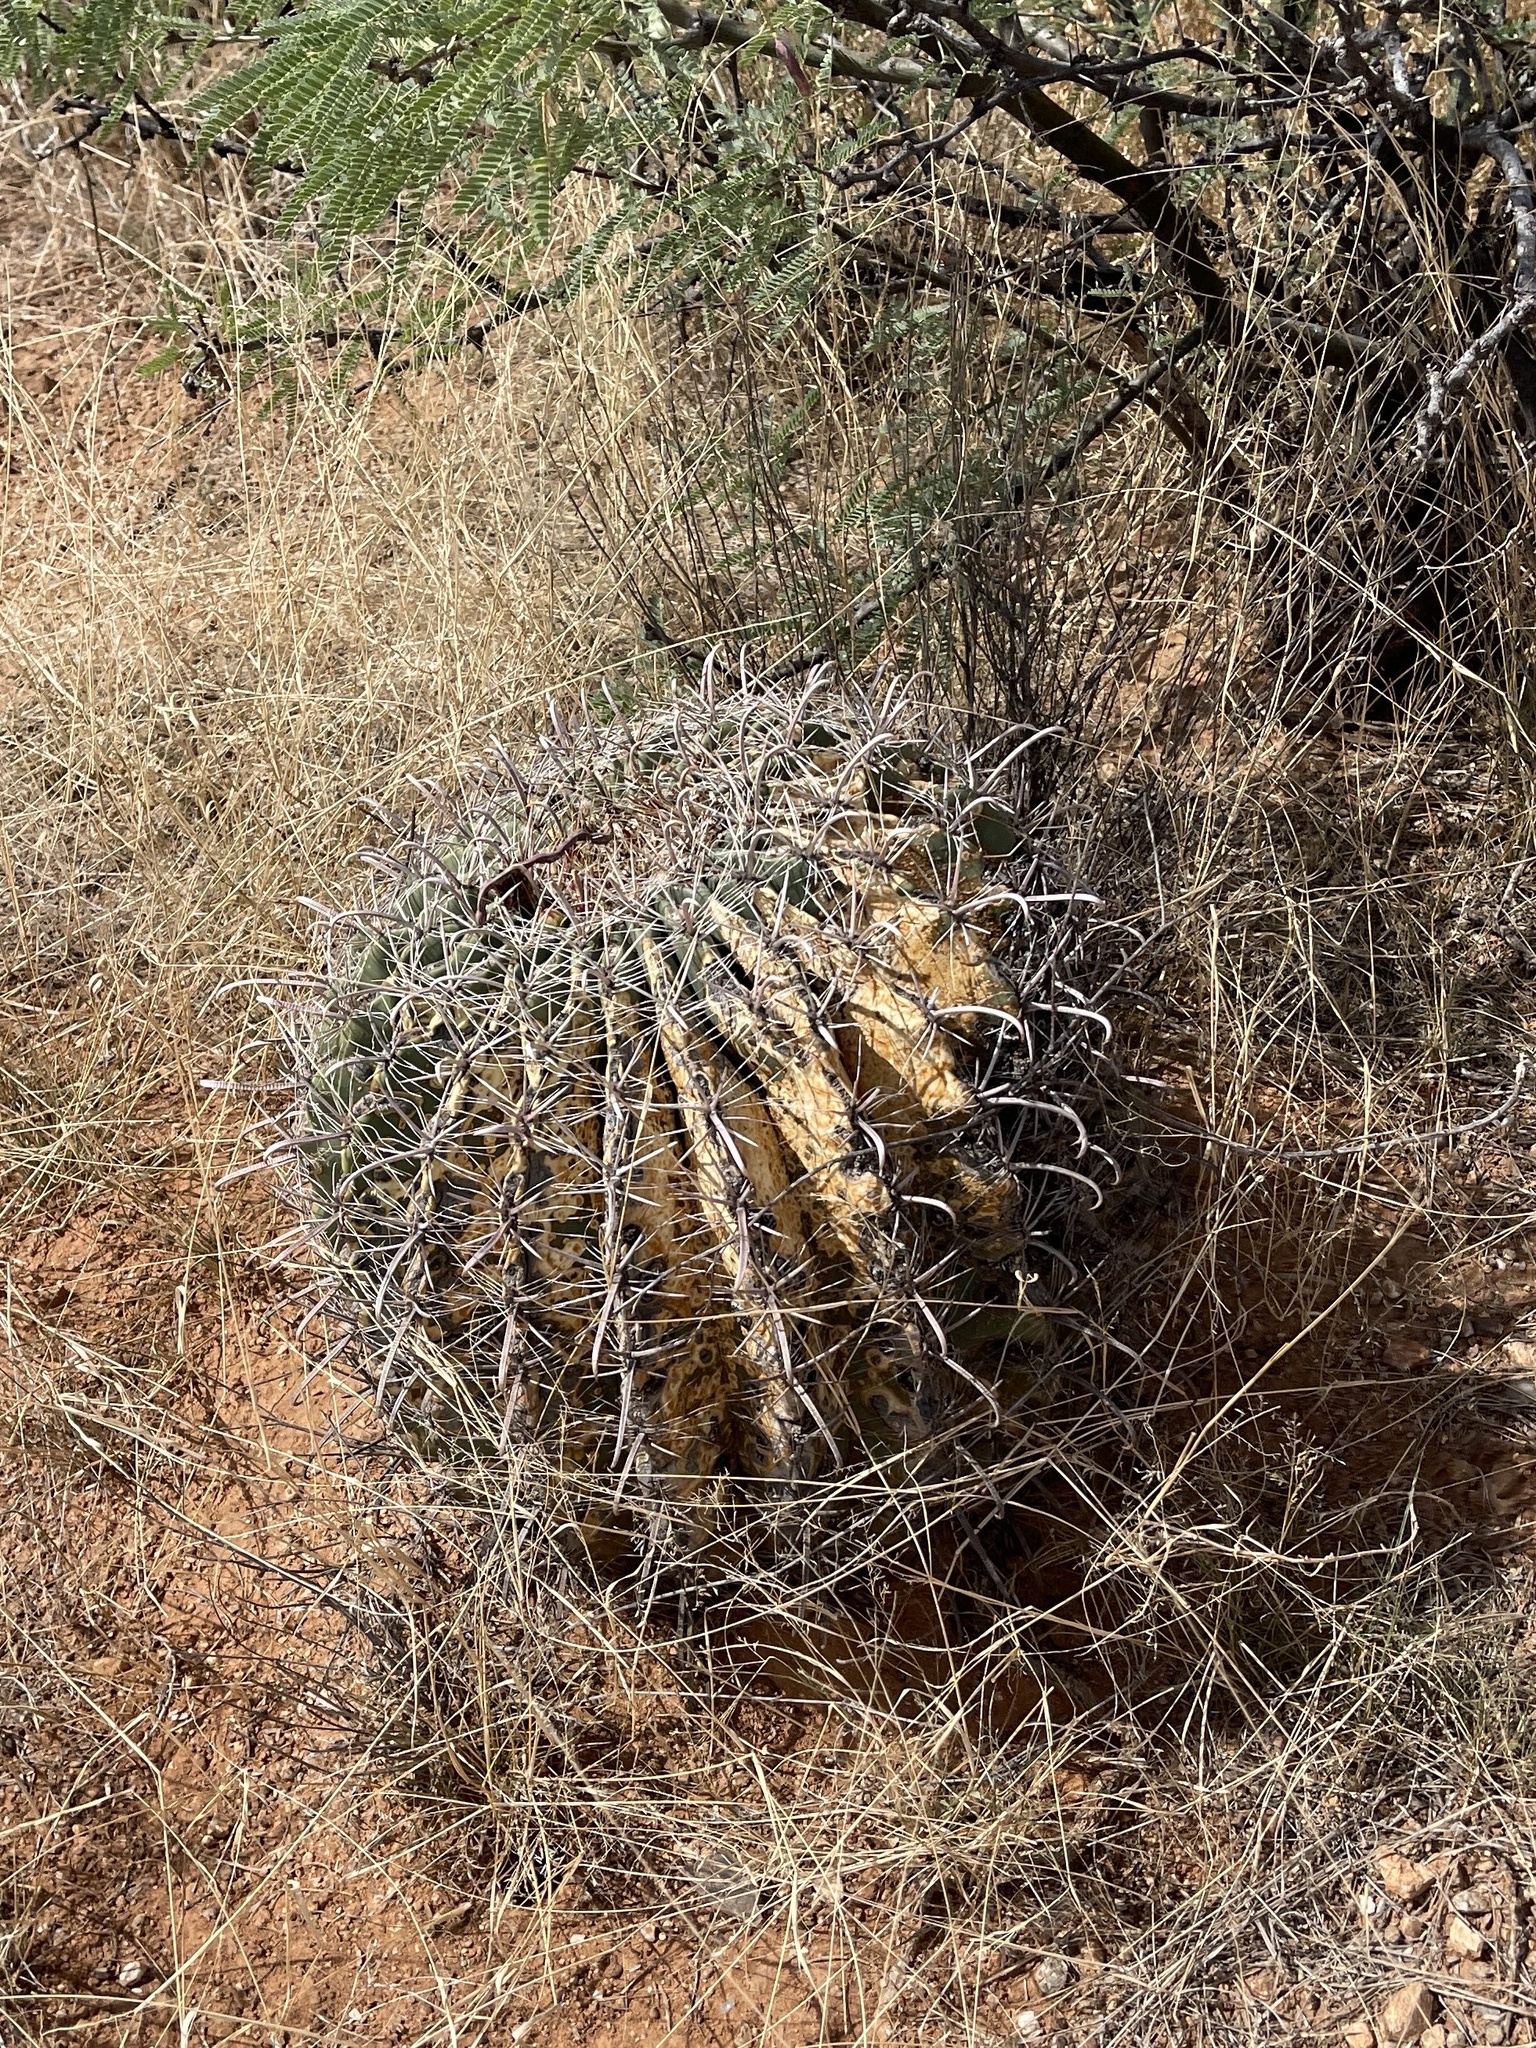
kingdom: Plantae
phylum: Tracheophyta
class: Magnoliopsida
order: Caryophyllales
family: Cactaceae
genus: Ferocactus
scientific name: Ferocactus wislizeni
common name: Candy barrel cactus
